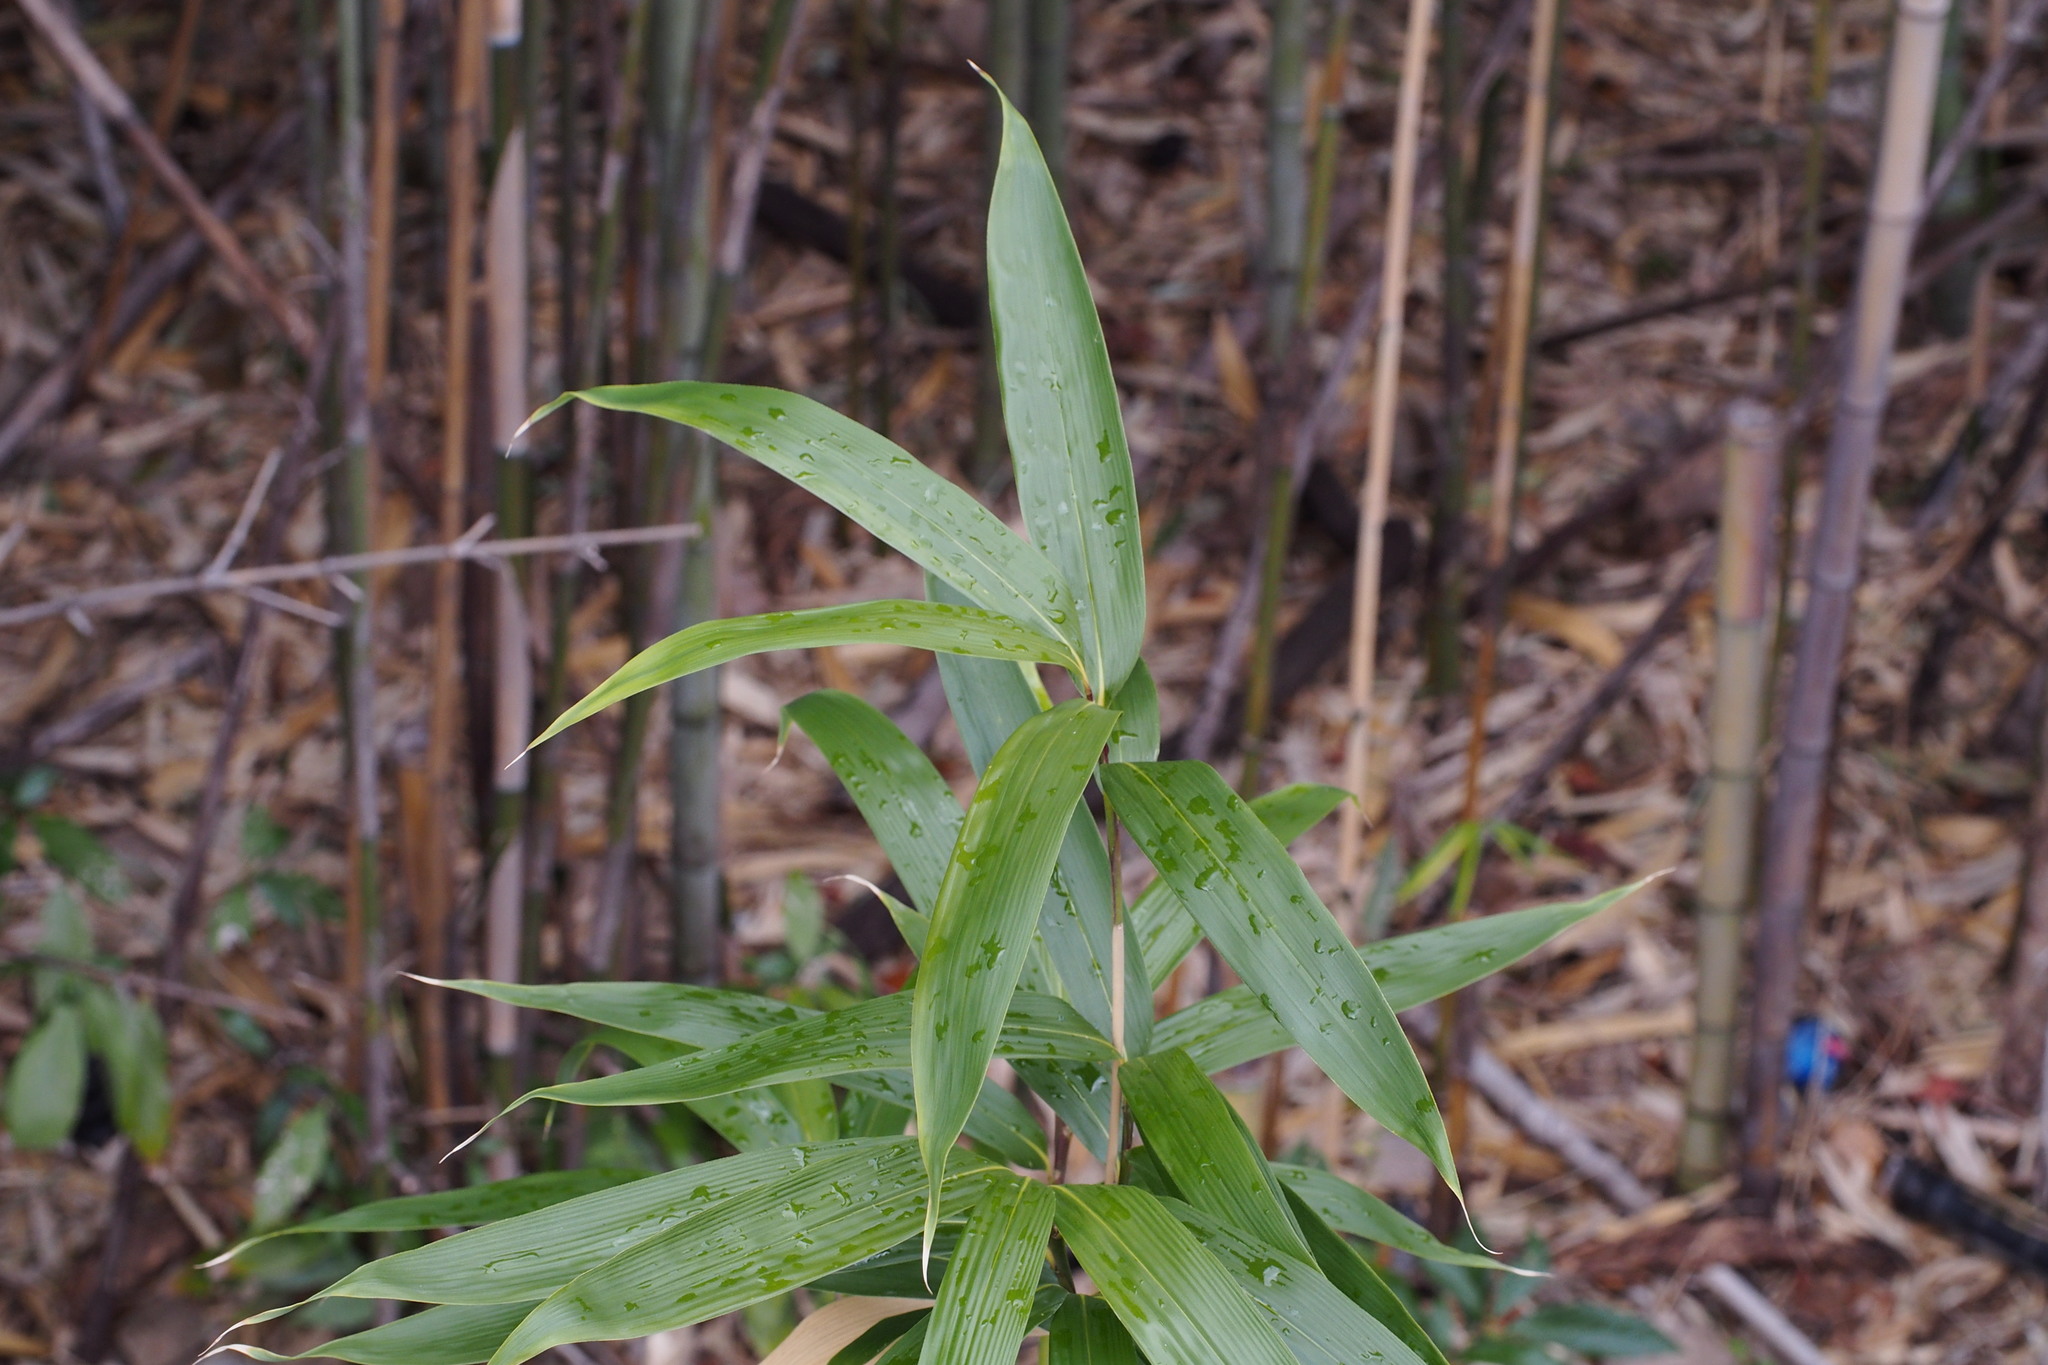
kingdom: Plantae
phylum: Tracheophyta
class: Liliopsida
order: Poales
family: Poaceae
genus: Pseudosasa
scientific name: Pseudosasa japonica
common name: Arrow bamboo
